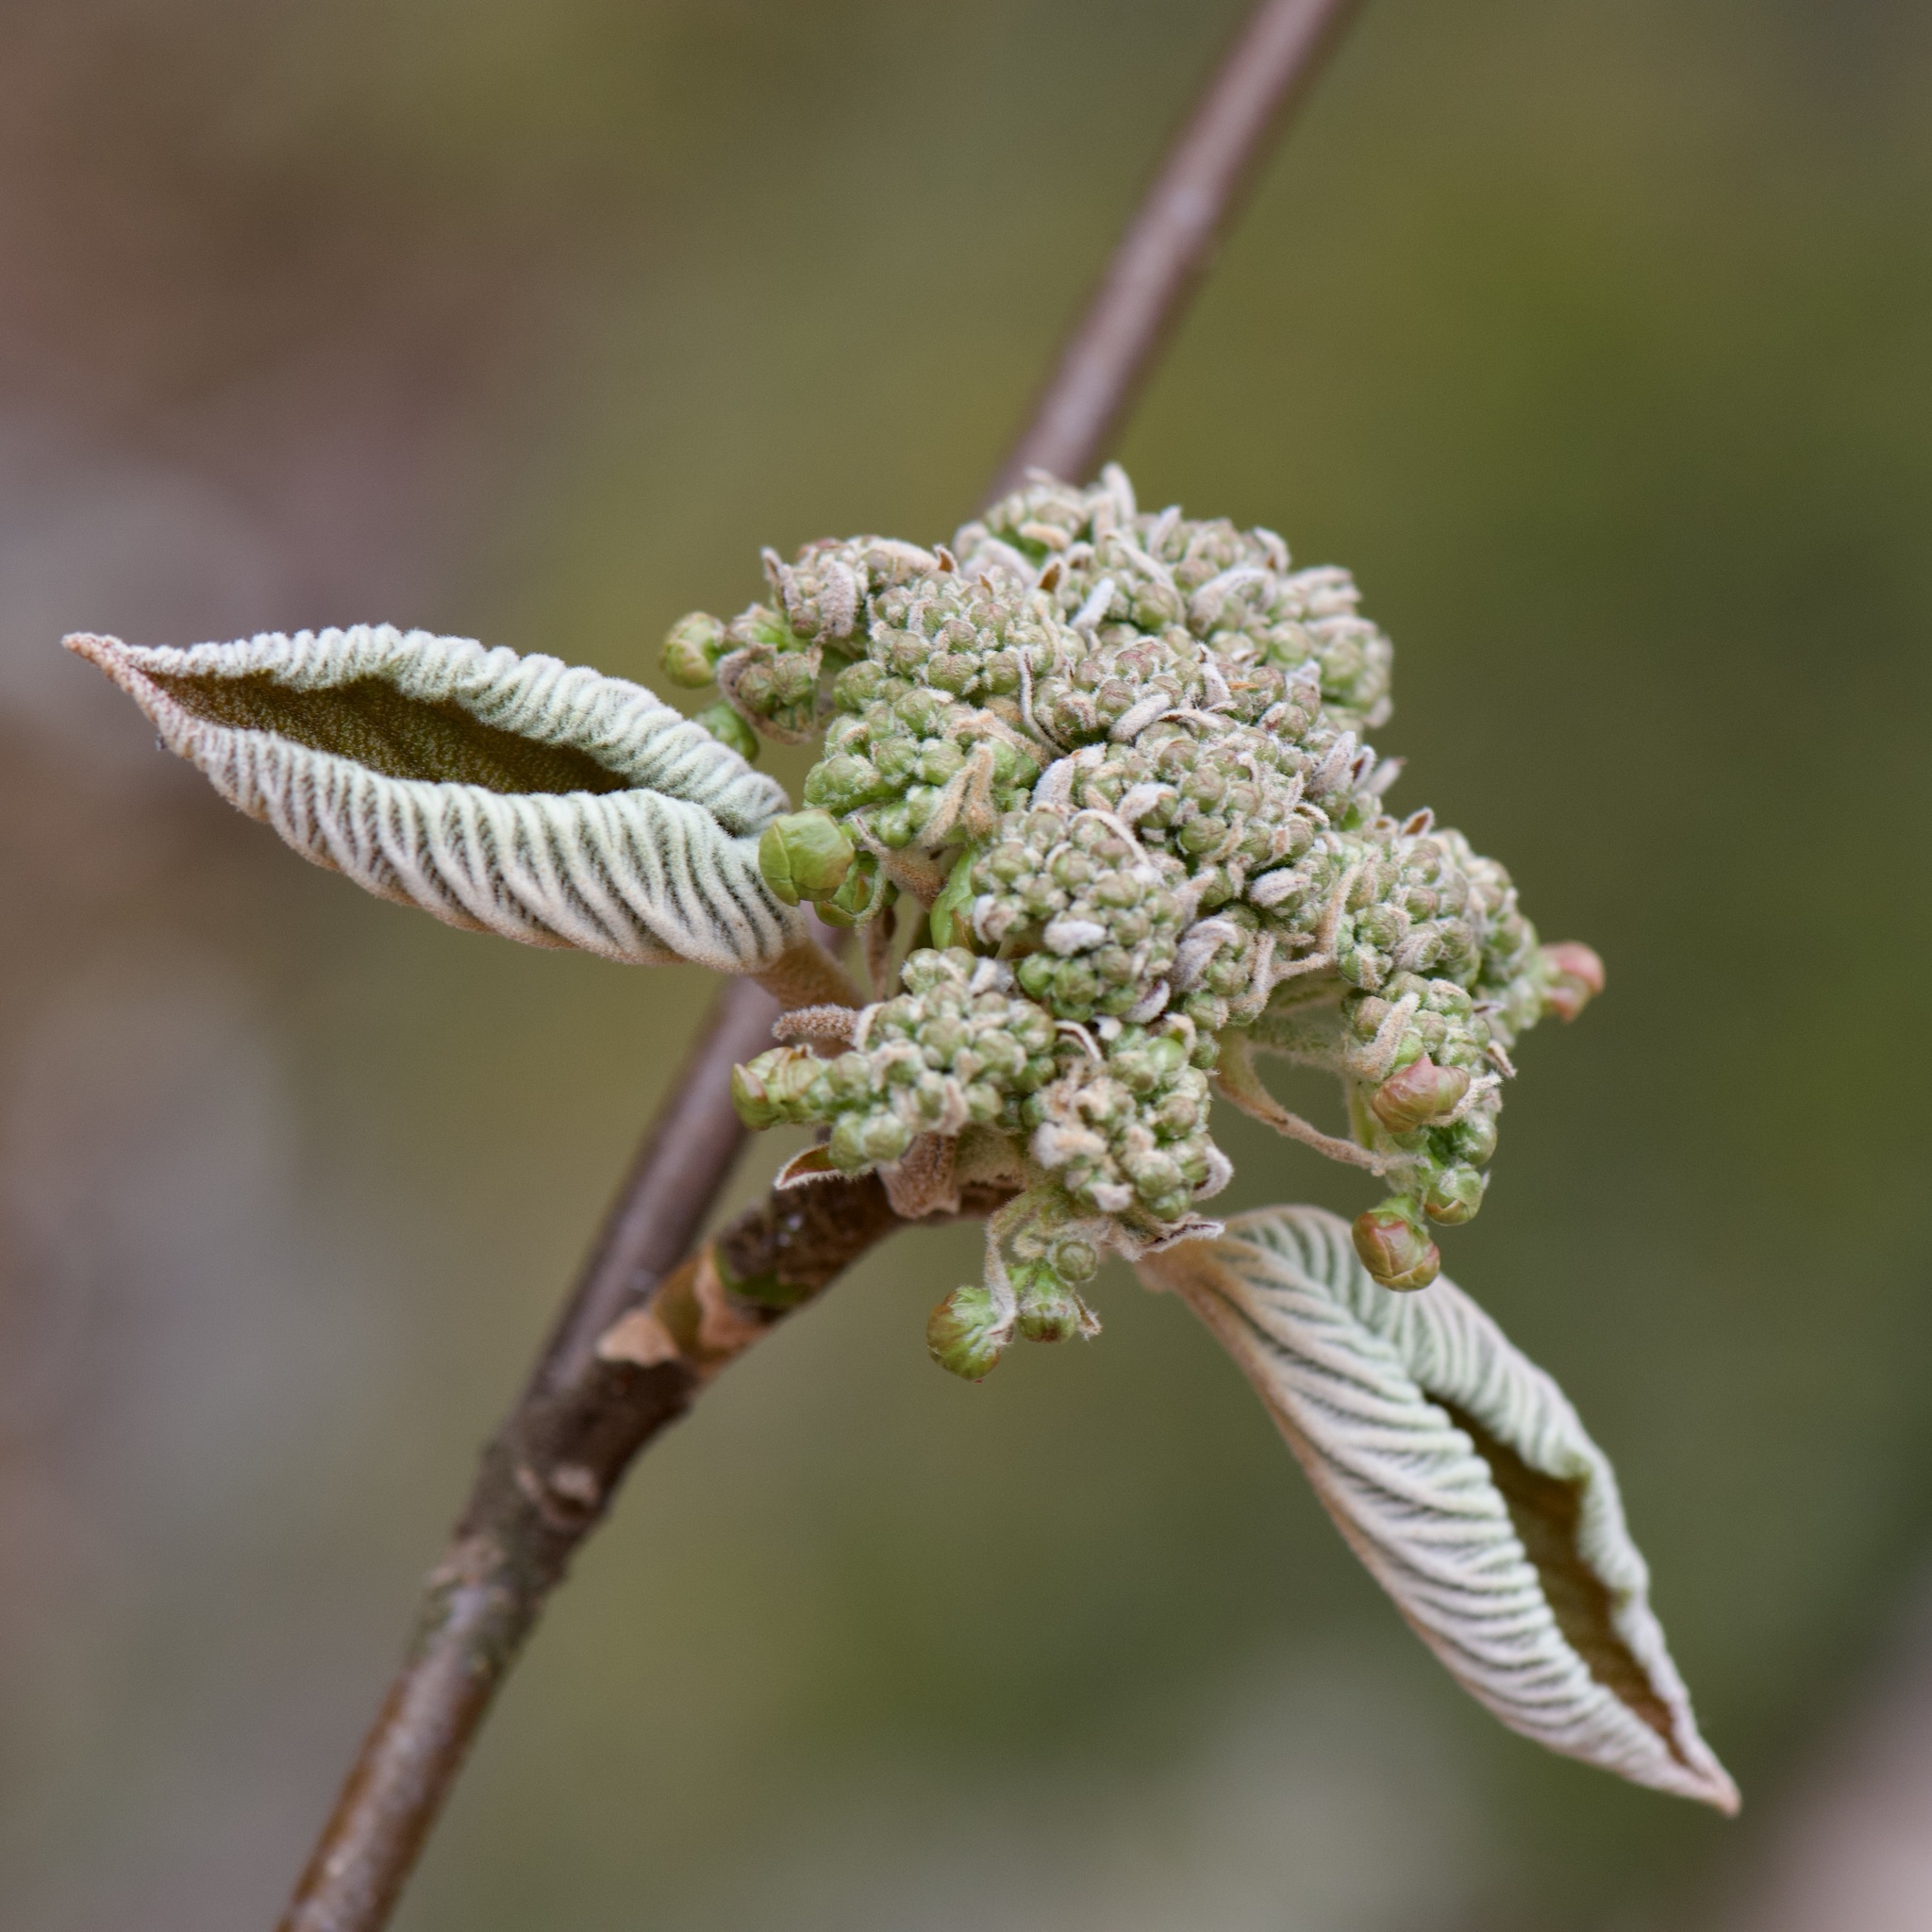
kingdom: Plantae
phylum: Tracheophyta
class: Magnoliopsida
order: Dipsacales
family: Viburnaceae
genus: Viburnum
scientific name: Viburnum lantanoides
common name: Hobblebush
